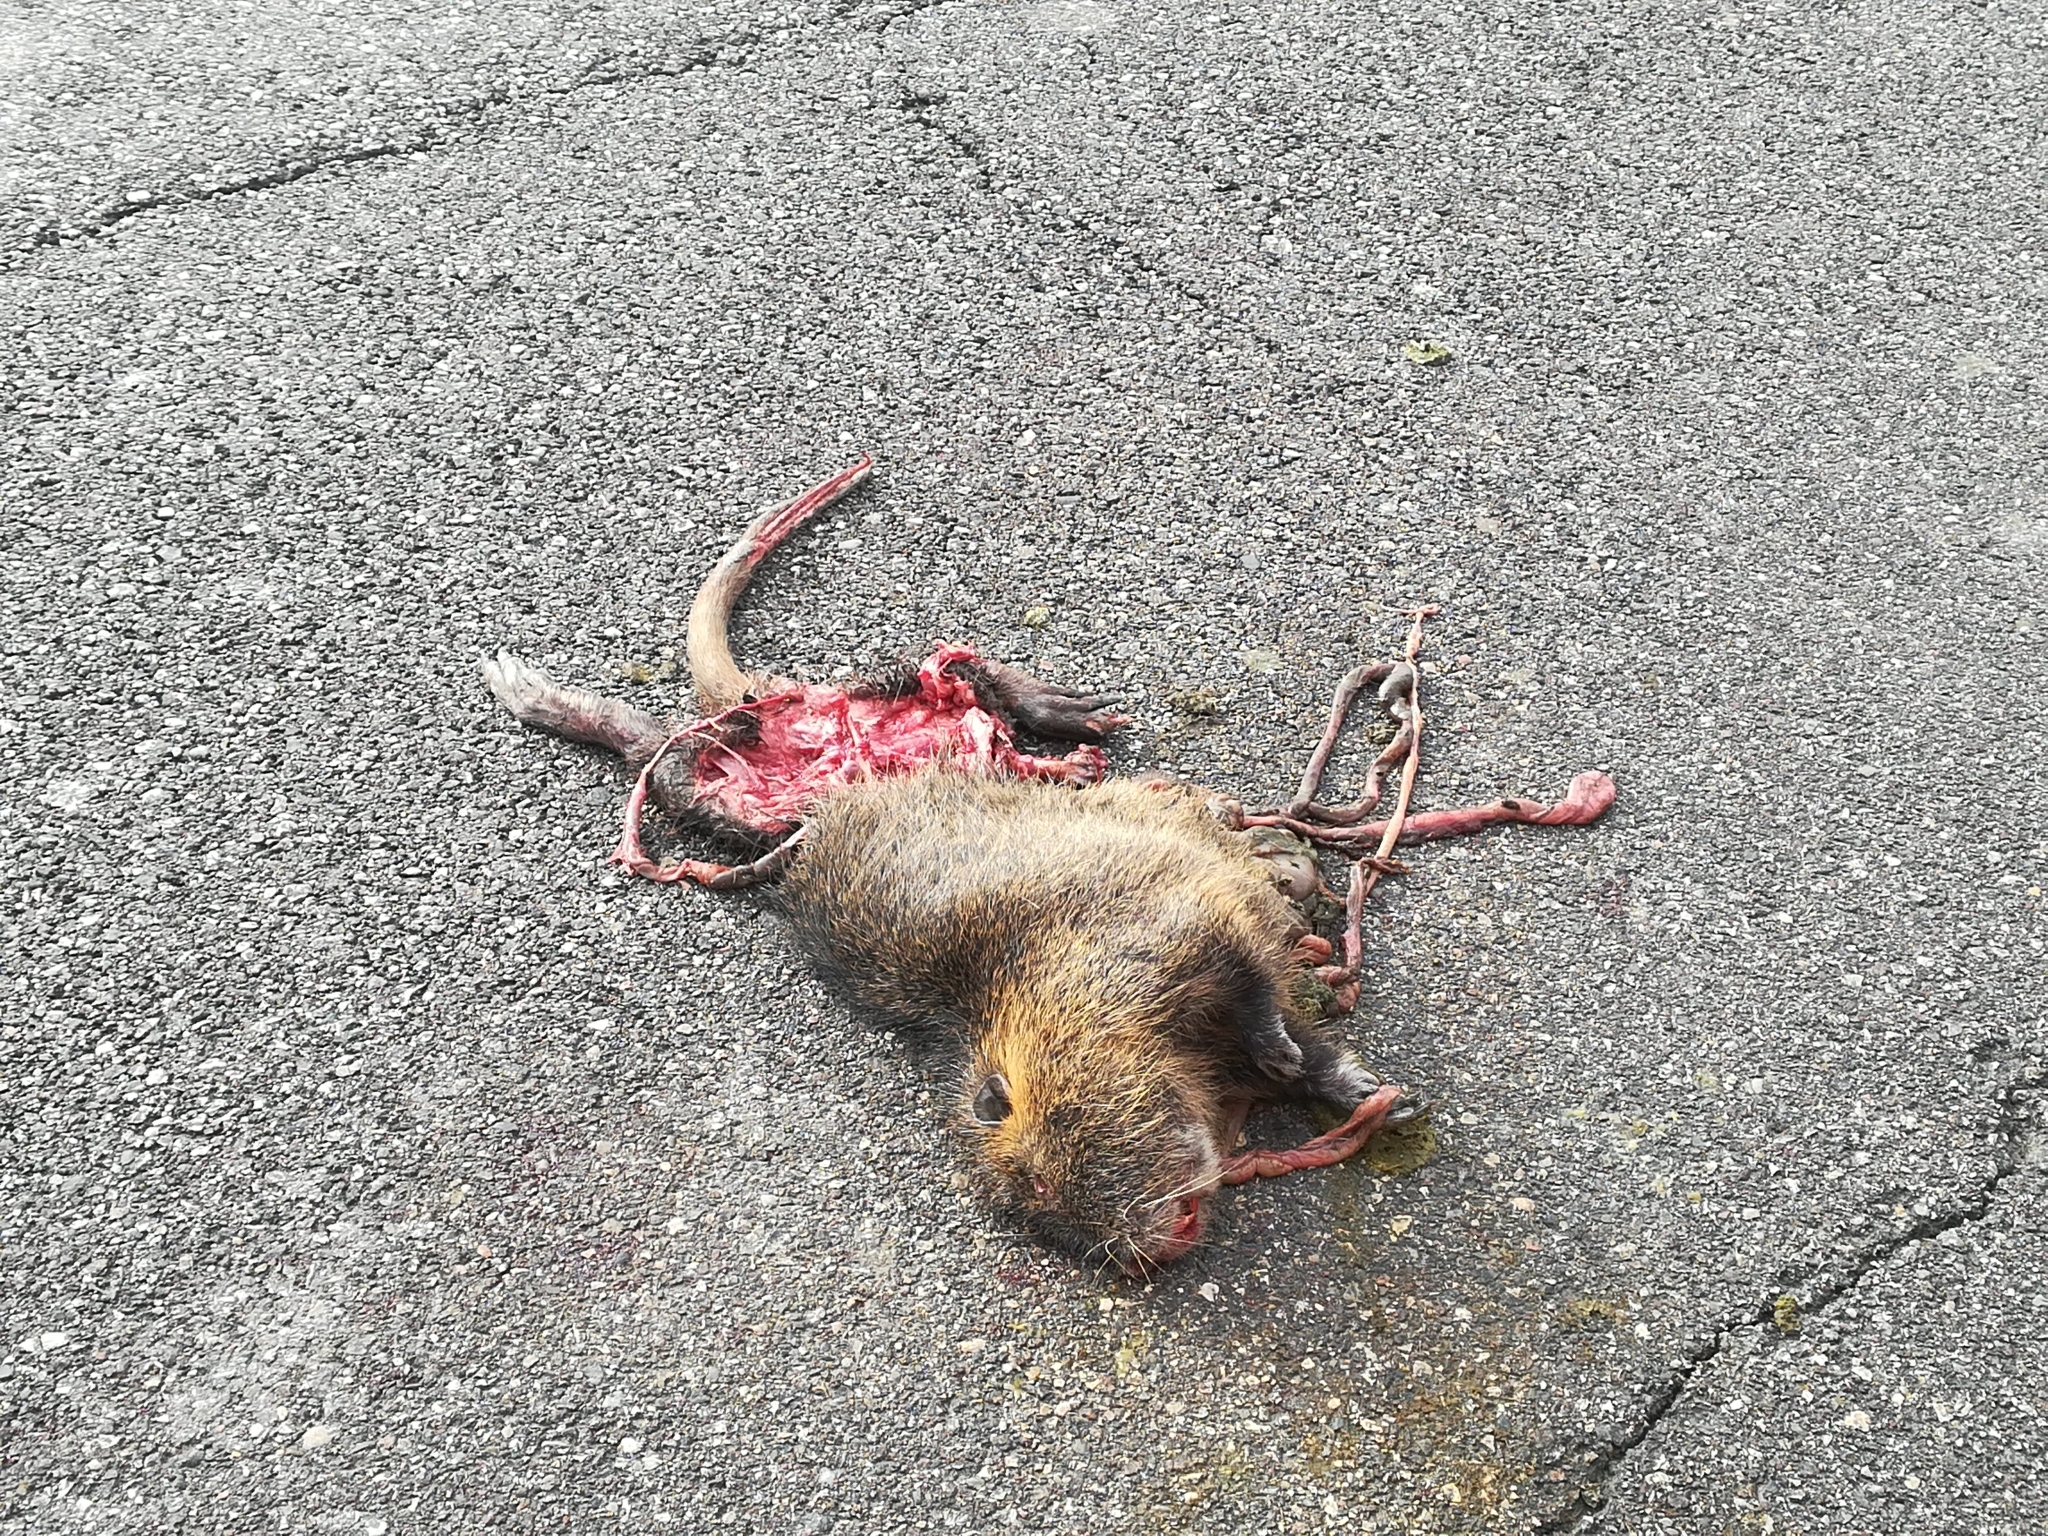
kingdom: Animalia
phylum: Chordata
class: Mammalia
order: Rodentia
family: Myocastoridae
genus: Myocastor
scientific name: Myocastor coypus
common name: Coypu
